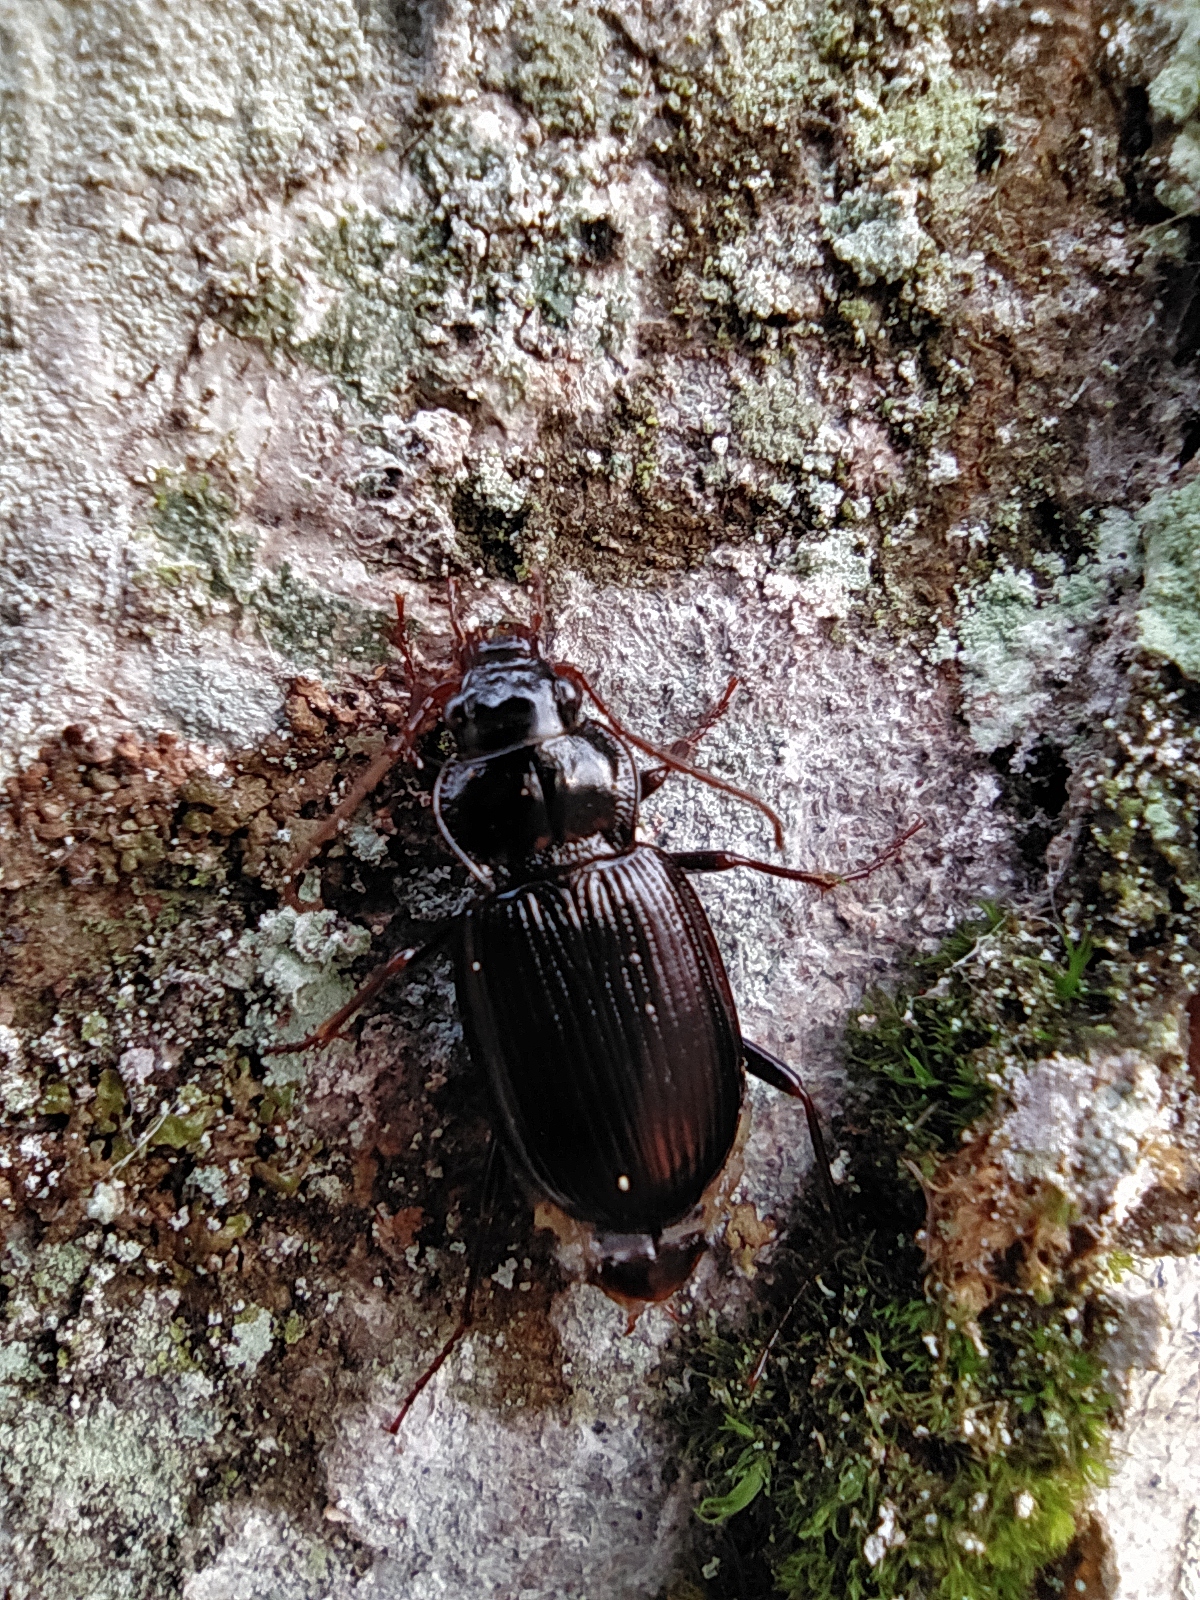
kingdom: Animalia
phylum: Arthropoda
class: Insecta
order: Coleoptera
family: Carabidae
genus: Nebria
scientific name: Nebria brevicollis
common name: Short-necked gazelle beetle
